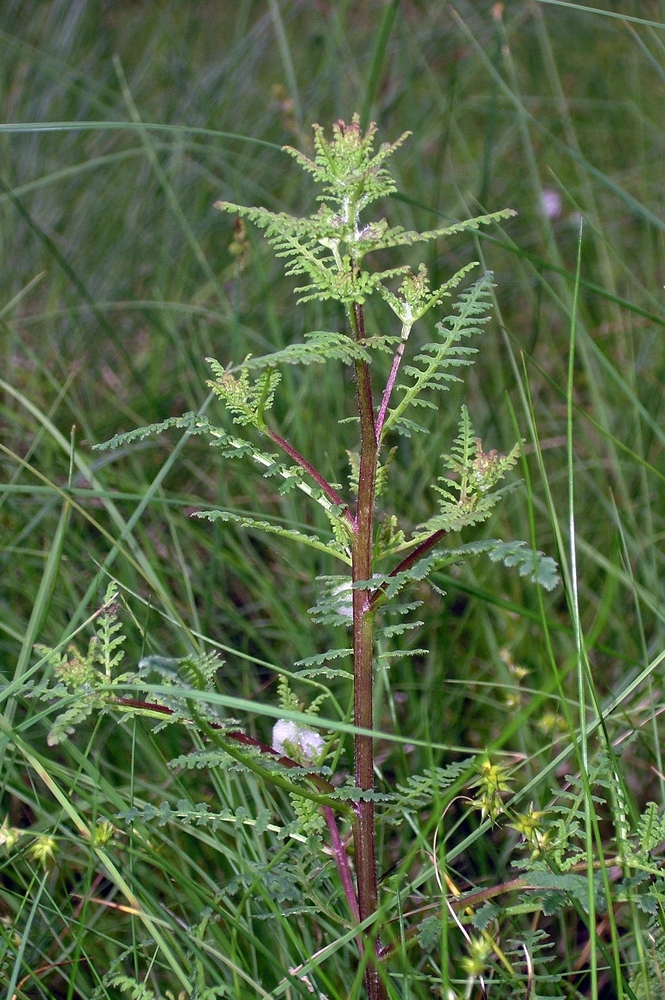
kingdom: Plantae
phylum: Tracheophyta
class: Magnoliopsida
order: Lamiales
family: Orobanchaceae
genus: Pedicularis
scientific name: Pedicularis palustris
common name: Marsh lousewort
